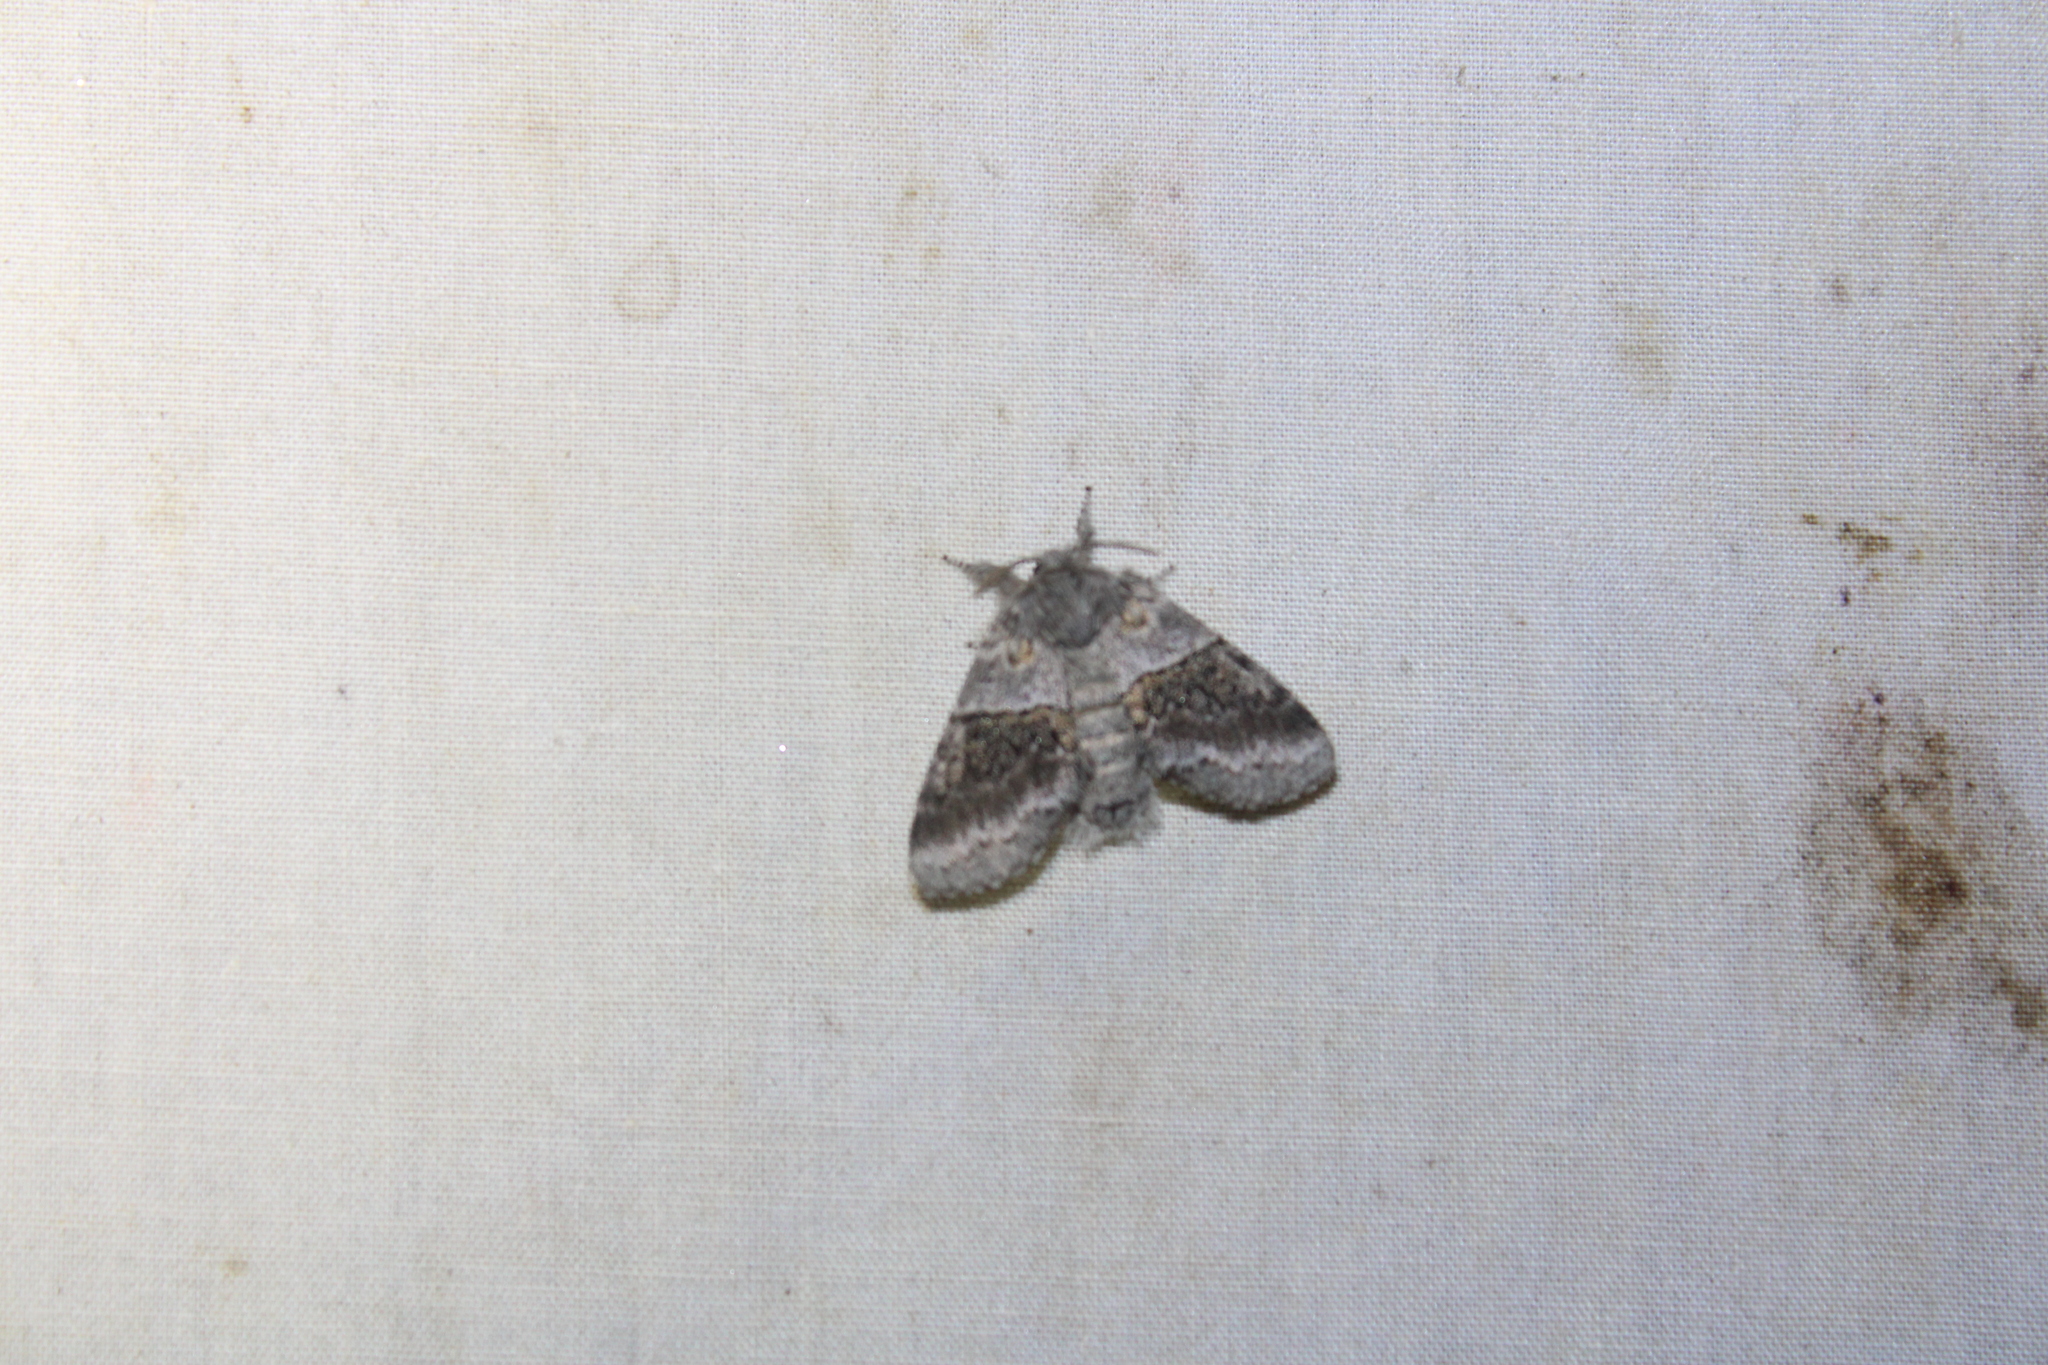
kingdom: Animalia
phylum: Arthropoda
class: Insecta
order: Lepidoptera
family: Notodontidae
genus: Gluphisia
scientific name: Gluphisia septentrionis
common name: Common gluphisia
